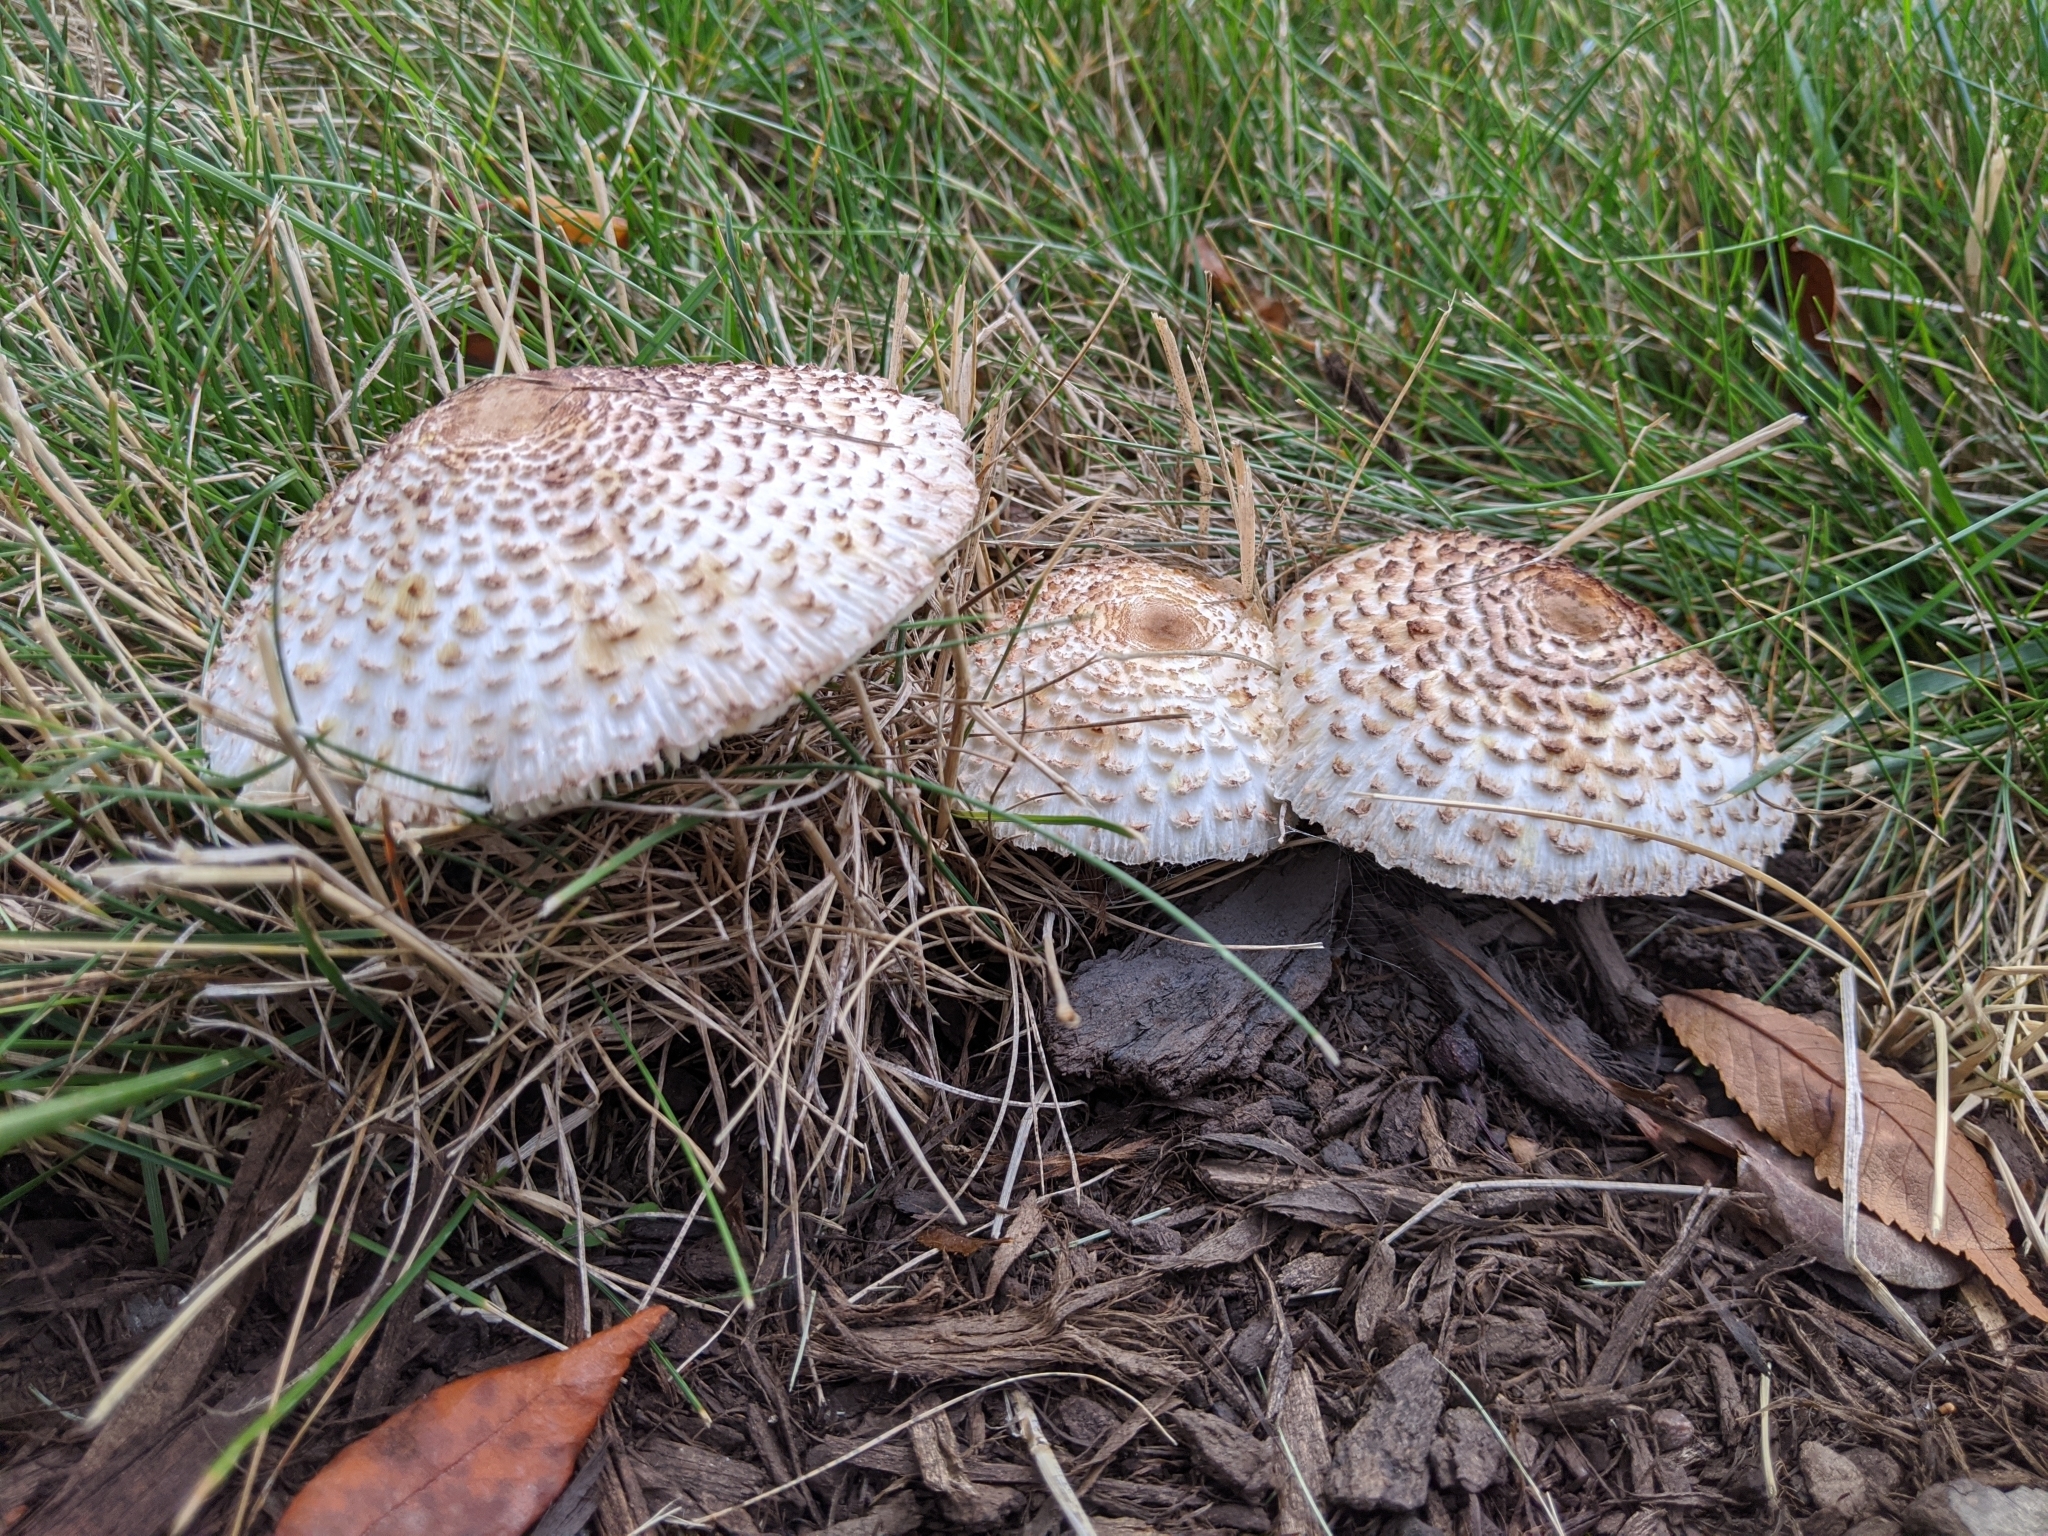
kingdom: Fungi
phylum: Basidiomycota
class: Agaricomycetes
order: Agaricales
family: Agaricaceae
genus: Leucoagaricus
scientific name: Leucoagaricus americanus
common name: Reddening lepiota
